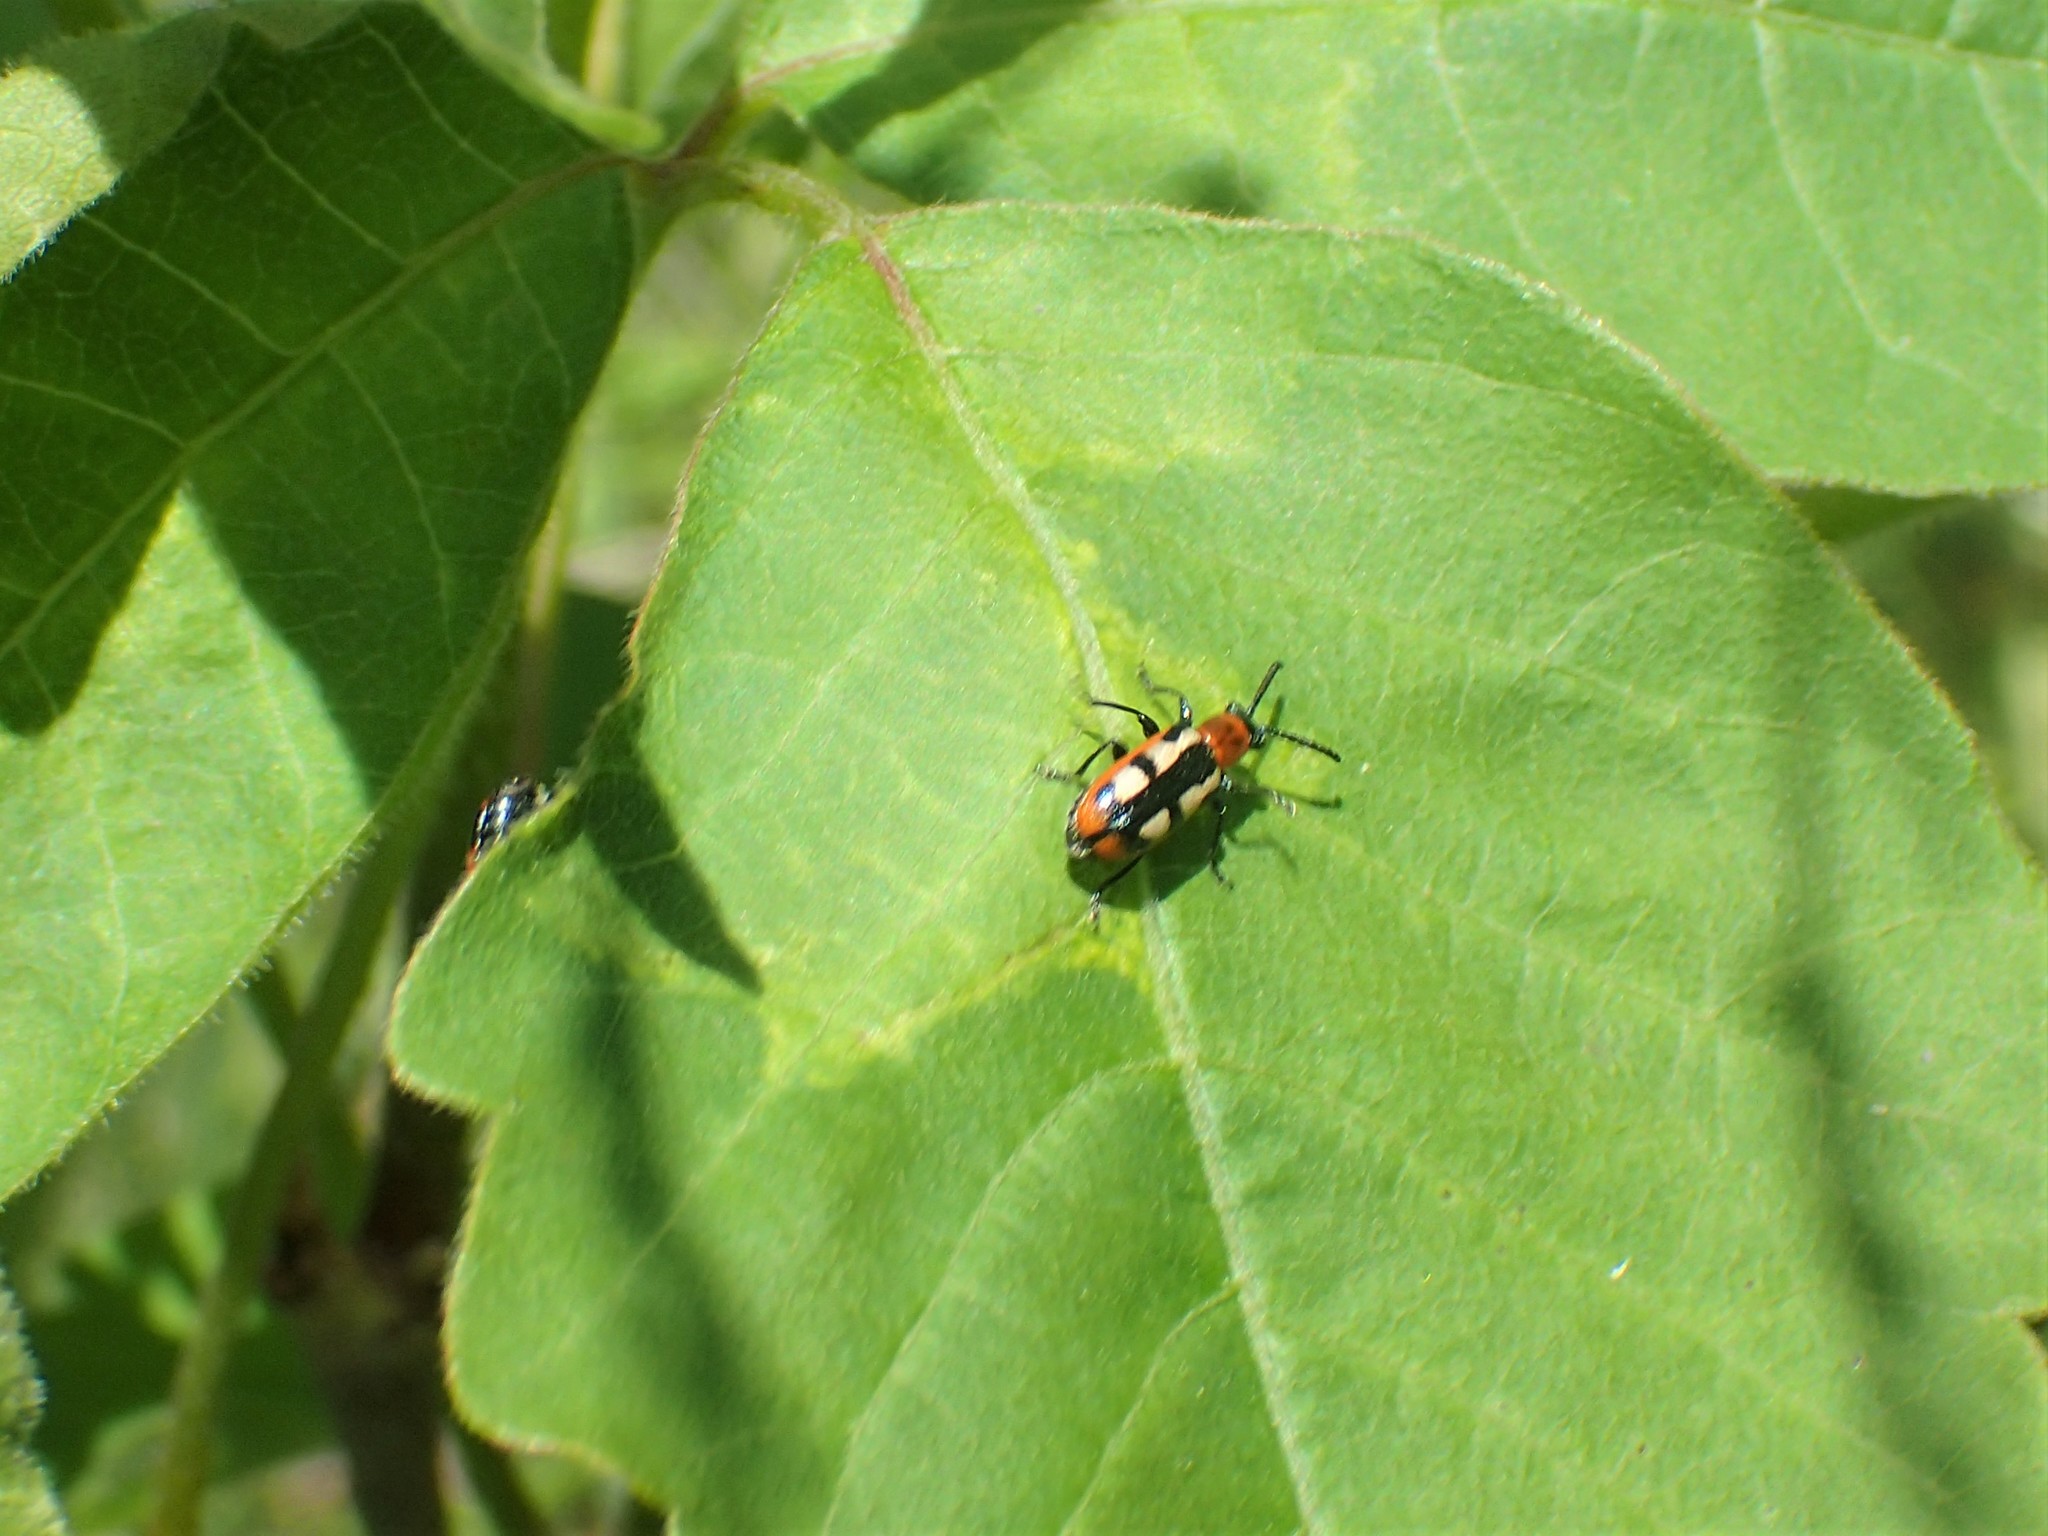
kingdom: Animalia
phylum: Arthropoda
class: Insecta
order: Coleoptera
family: Chrysomelidae
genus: Crioceris
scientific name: Crioceris asparagi
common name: Asparagus beetle
